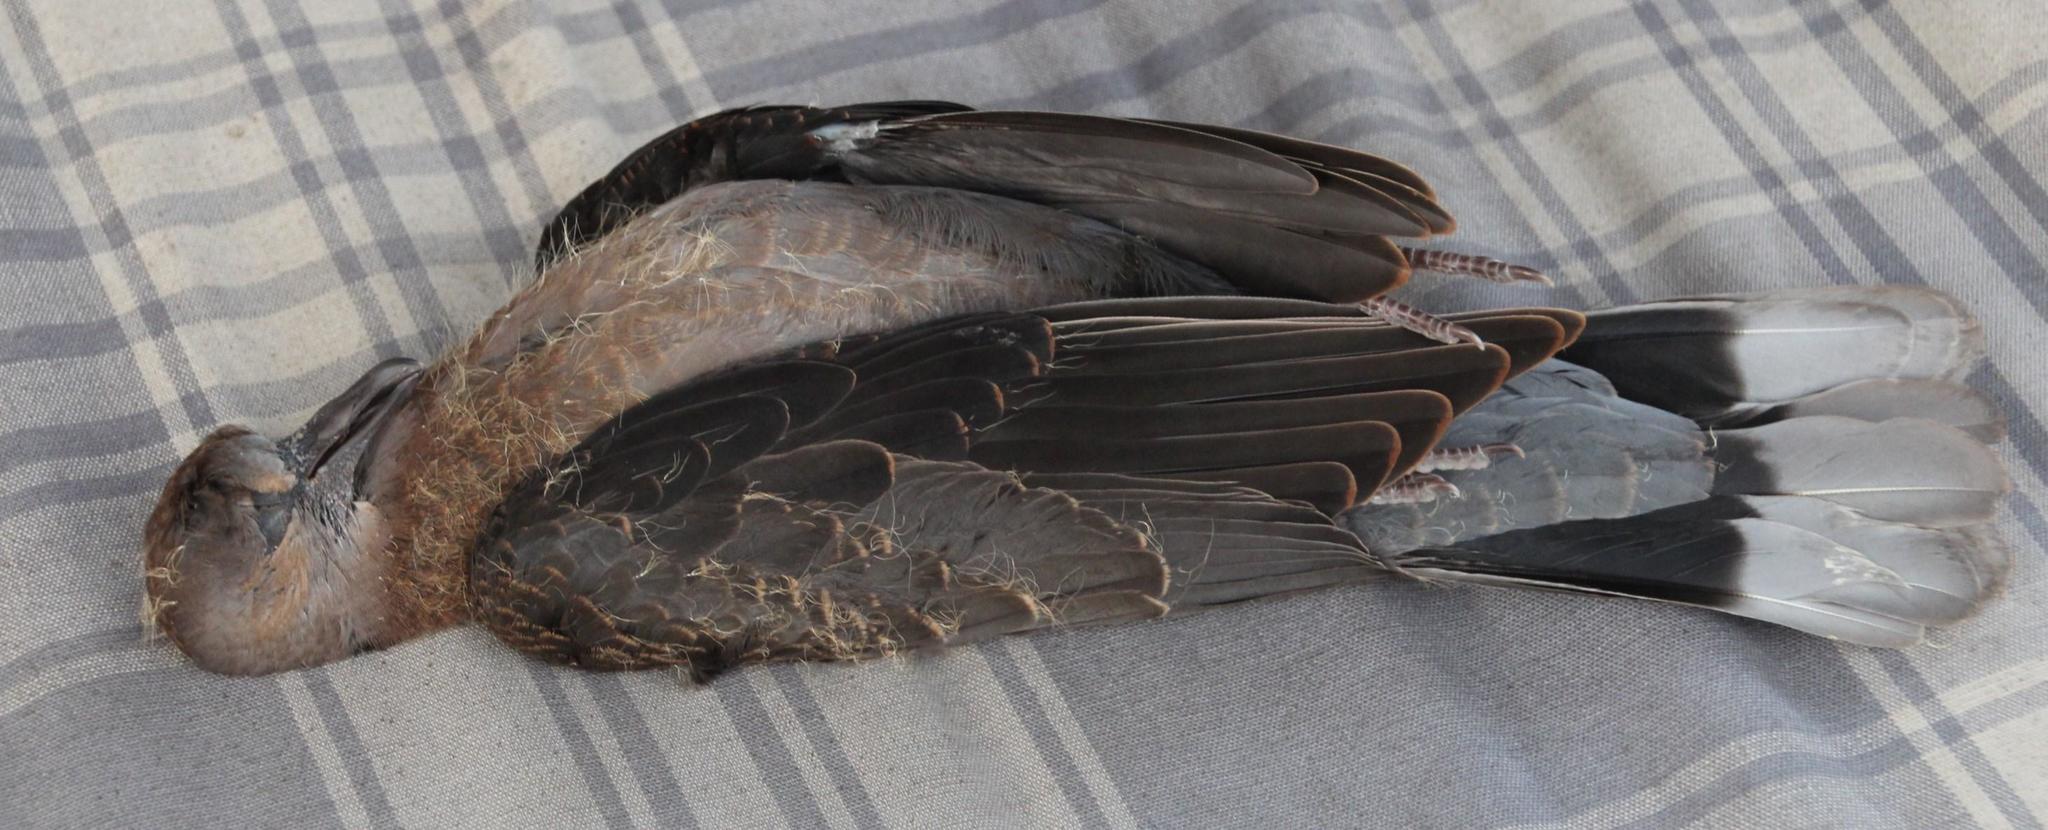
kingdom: Animalia
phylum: Chordata
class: Aves
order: Columbiformes
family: Columbidae
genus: Streptopelia
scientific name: Streptopelia semitorquata
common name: Red-eyed dove
